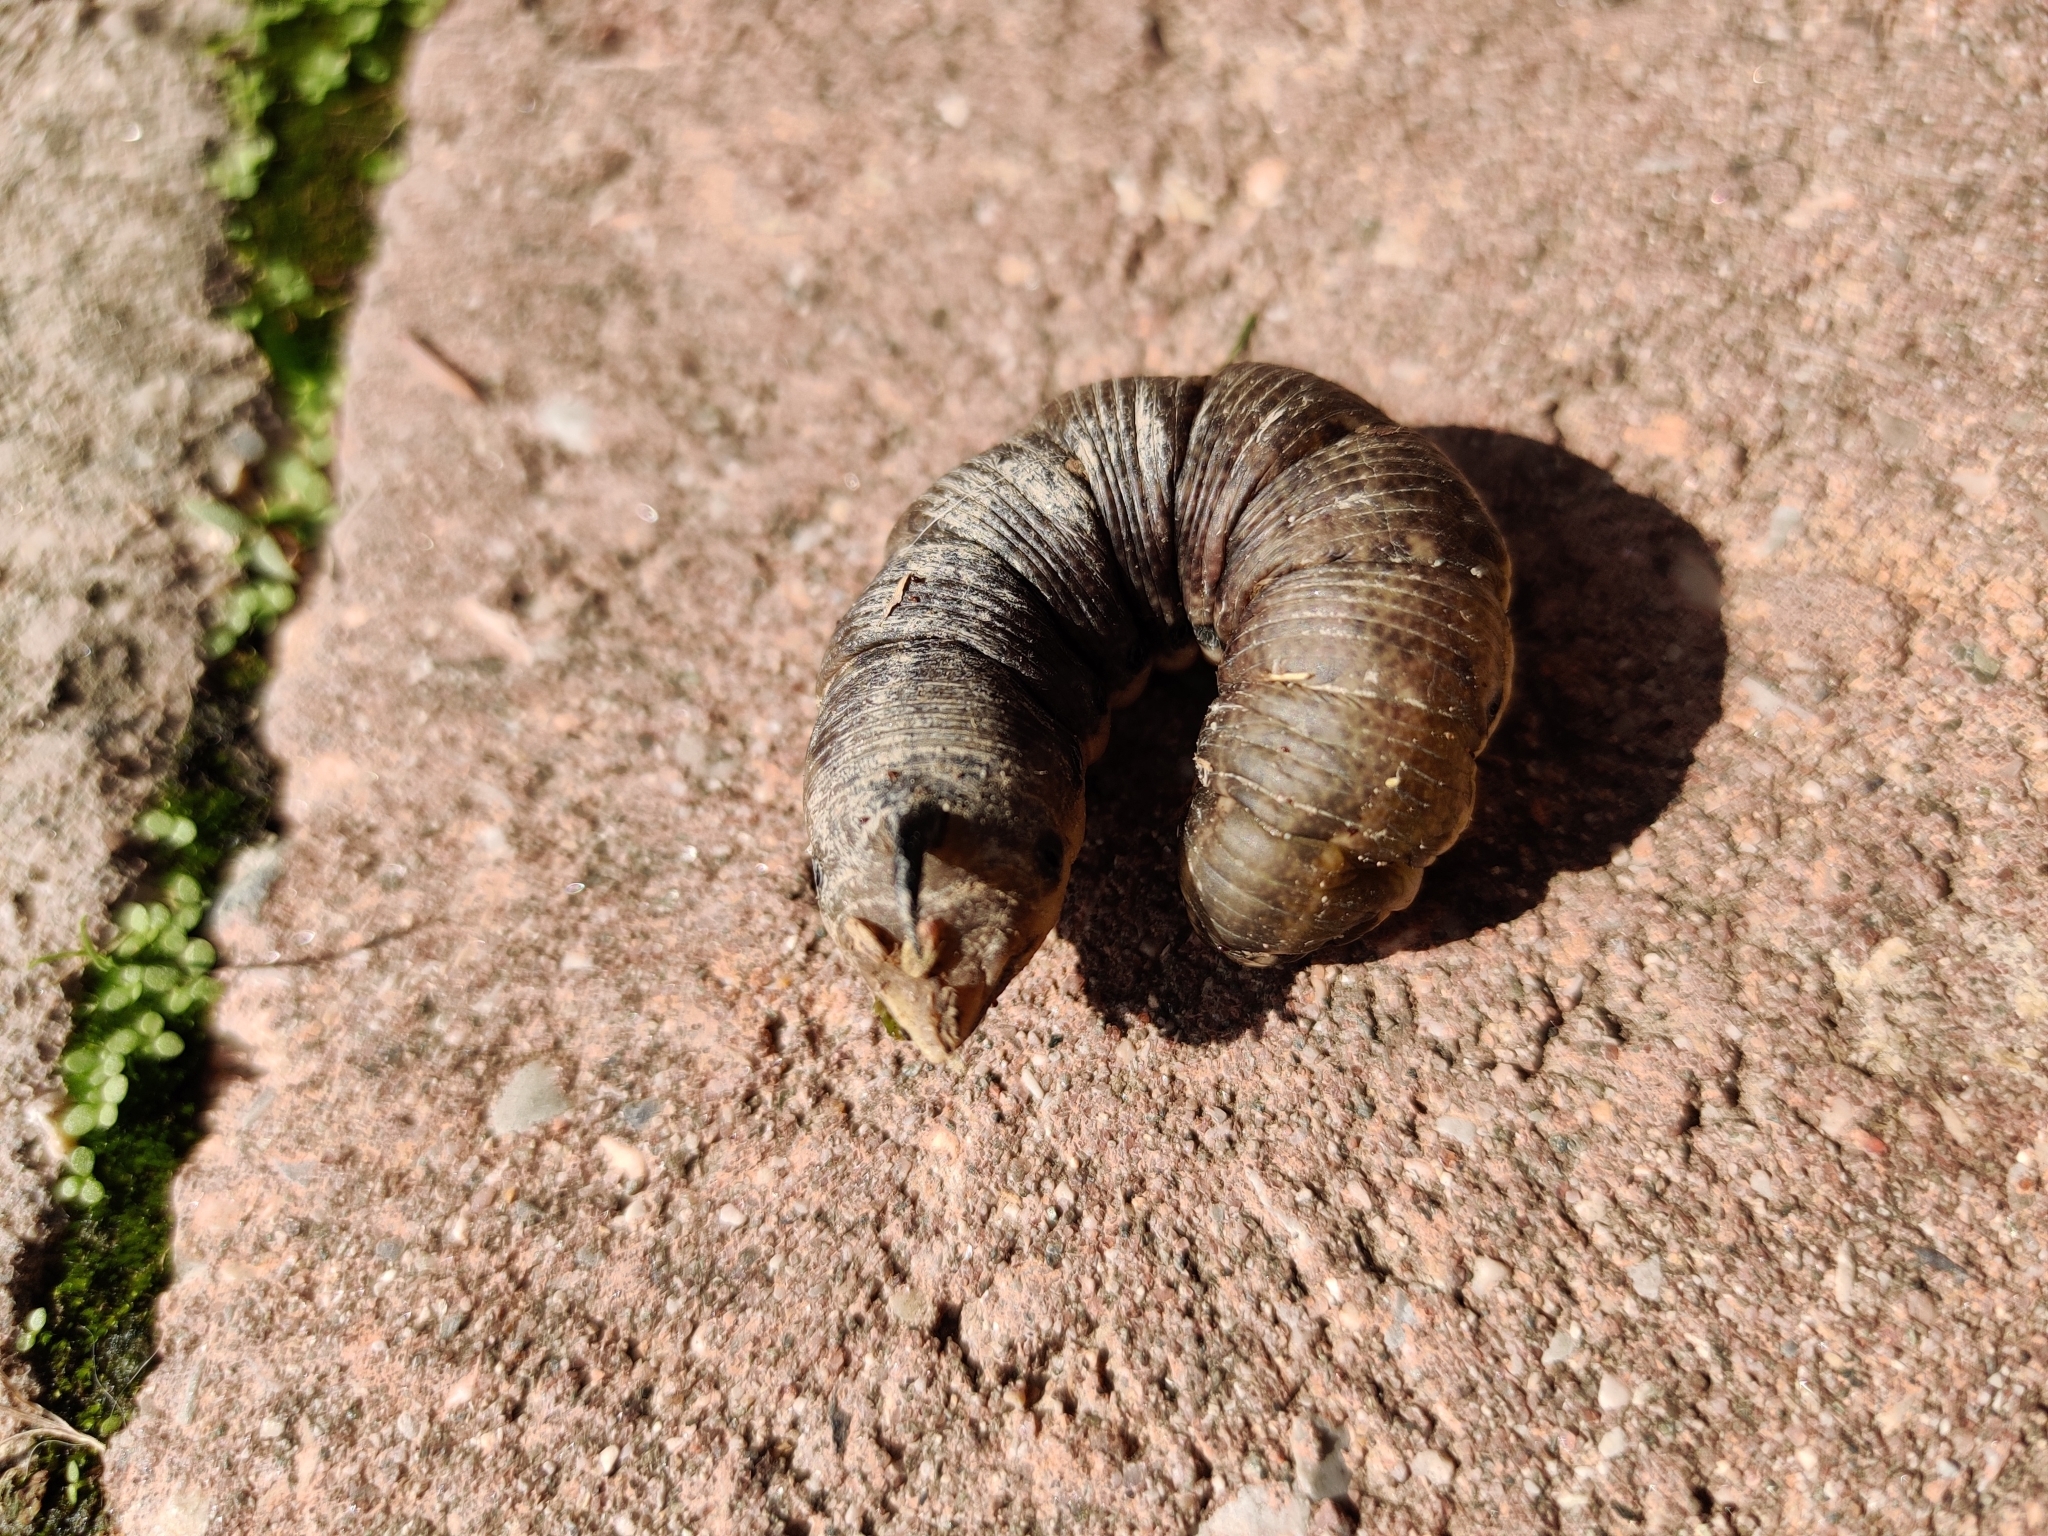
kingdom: Animalia
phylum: Arthropoda
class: Insecta
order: Lepidoptera
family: Sphingidae
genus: Agrius
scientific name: Agrius convolvuli
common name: Convolvulus hawkmoth
